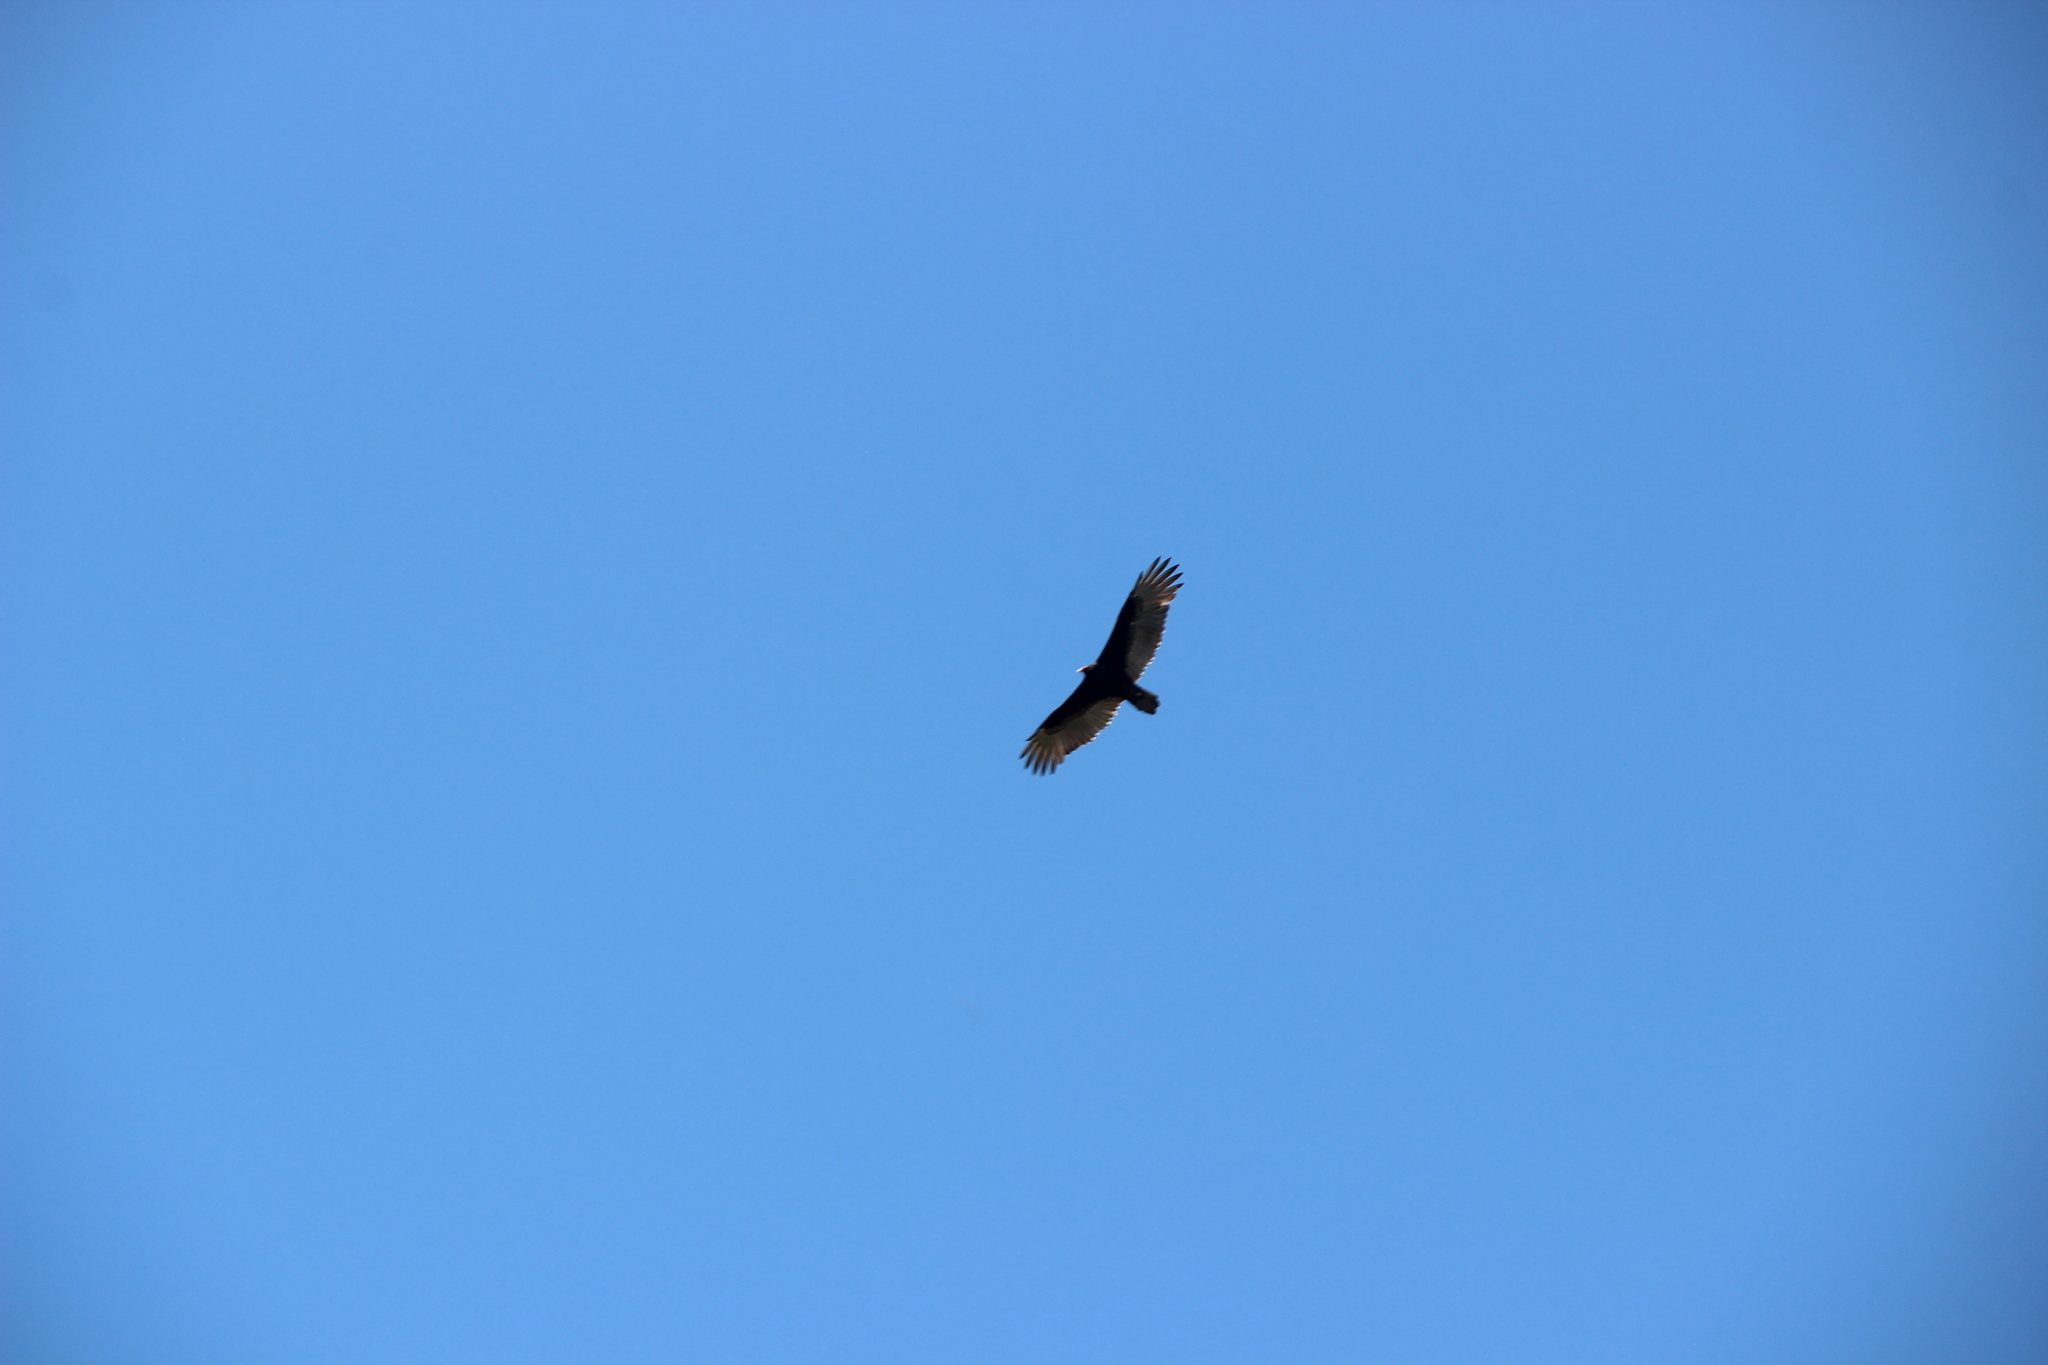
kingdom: Animalia
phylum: Chordata
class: Aves
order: Accipitriformes
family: Cathartidae
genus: Cathartes
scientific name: Cathartes aura
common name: Turkey vulture
